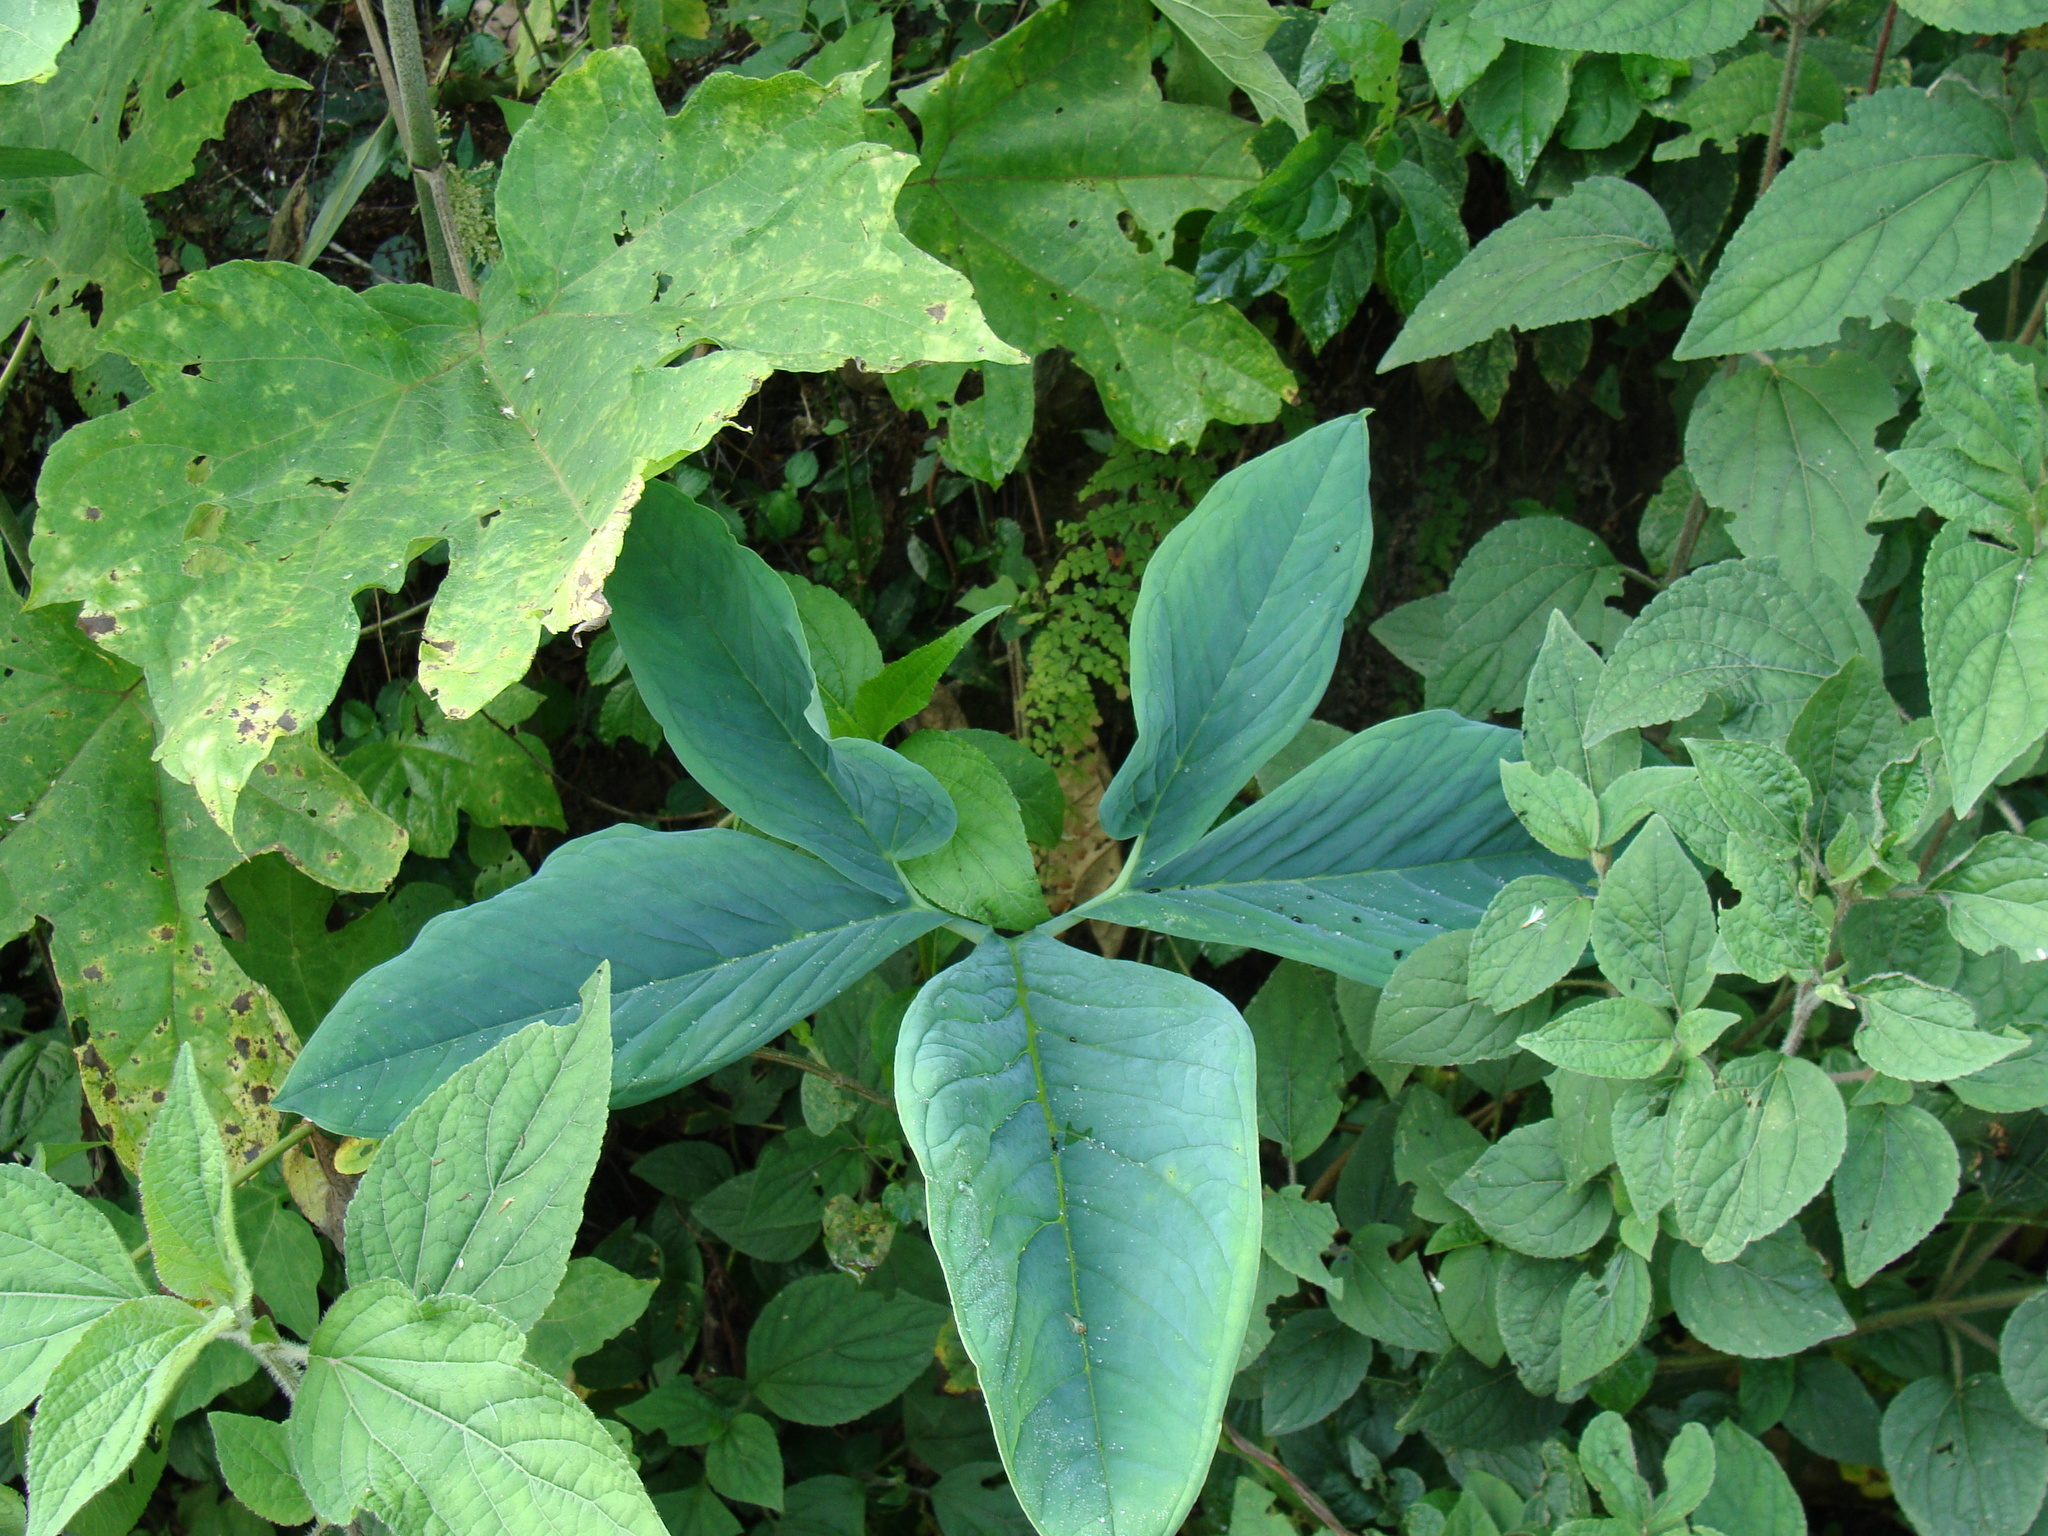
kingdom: Plantae
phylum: Tracheophyta
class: Liliopsida
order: Alismatales
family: Araceae
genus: Xanthosoma
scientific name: Xanthosoma wendlandii
